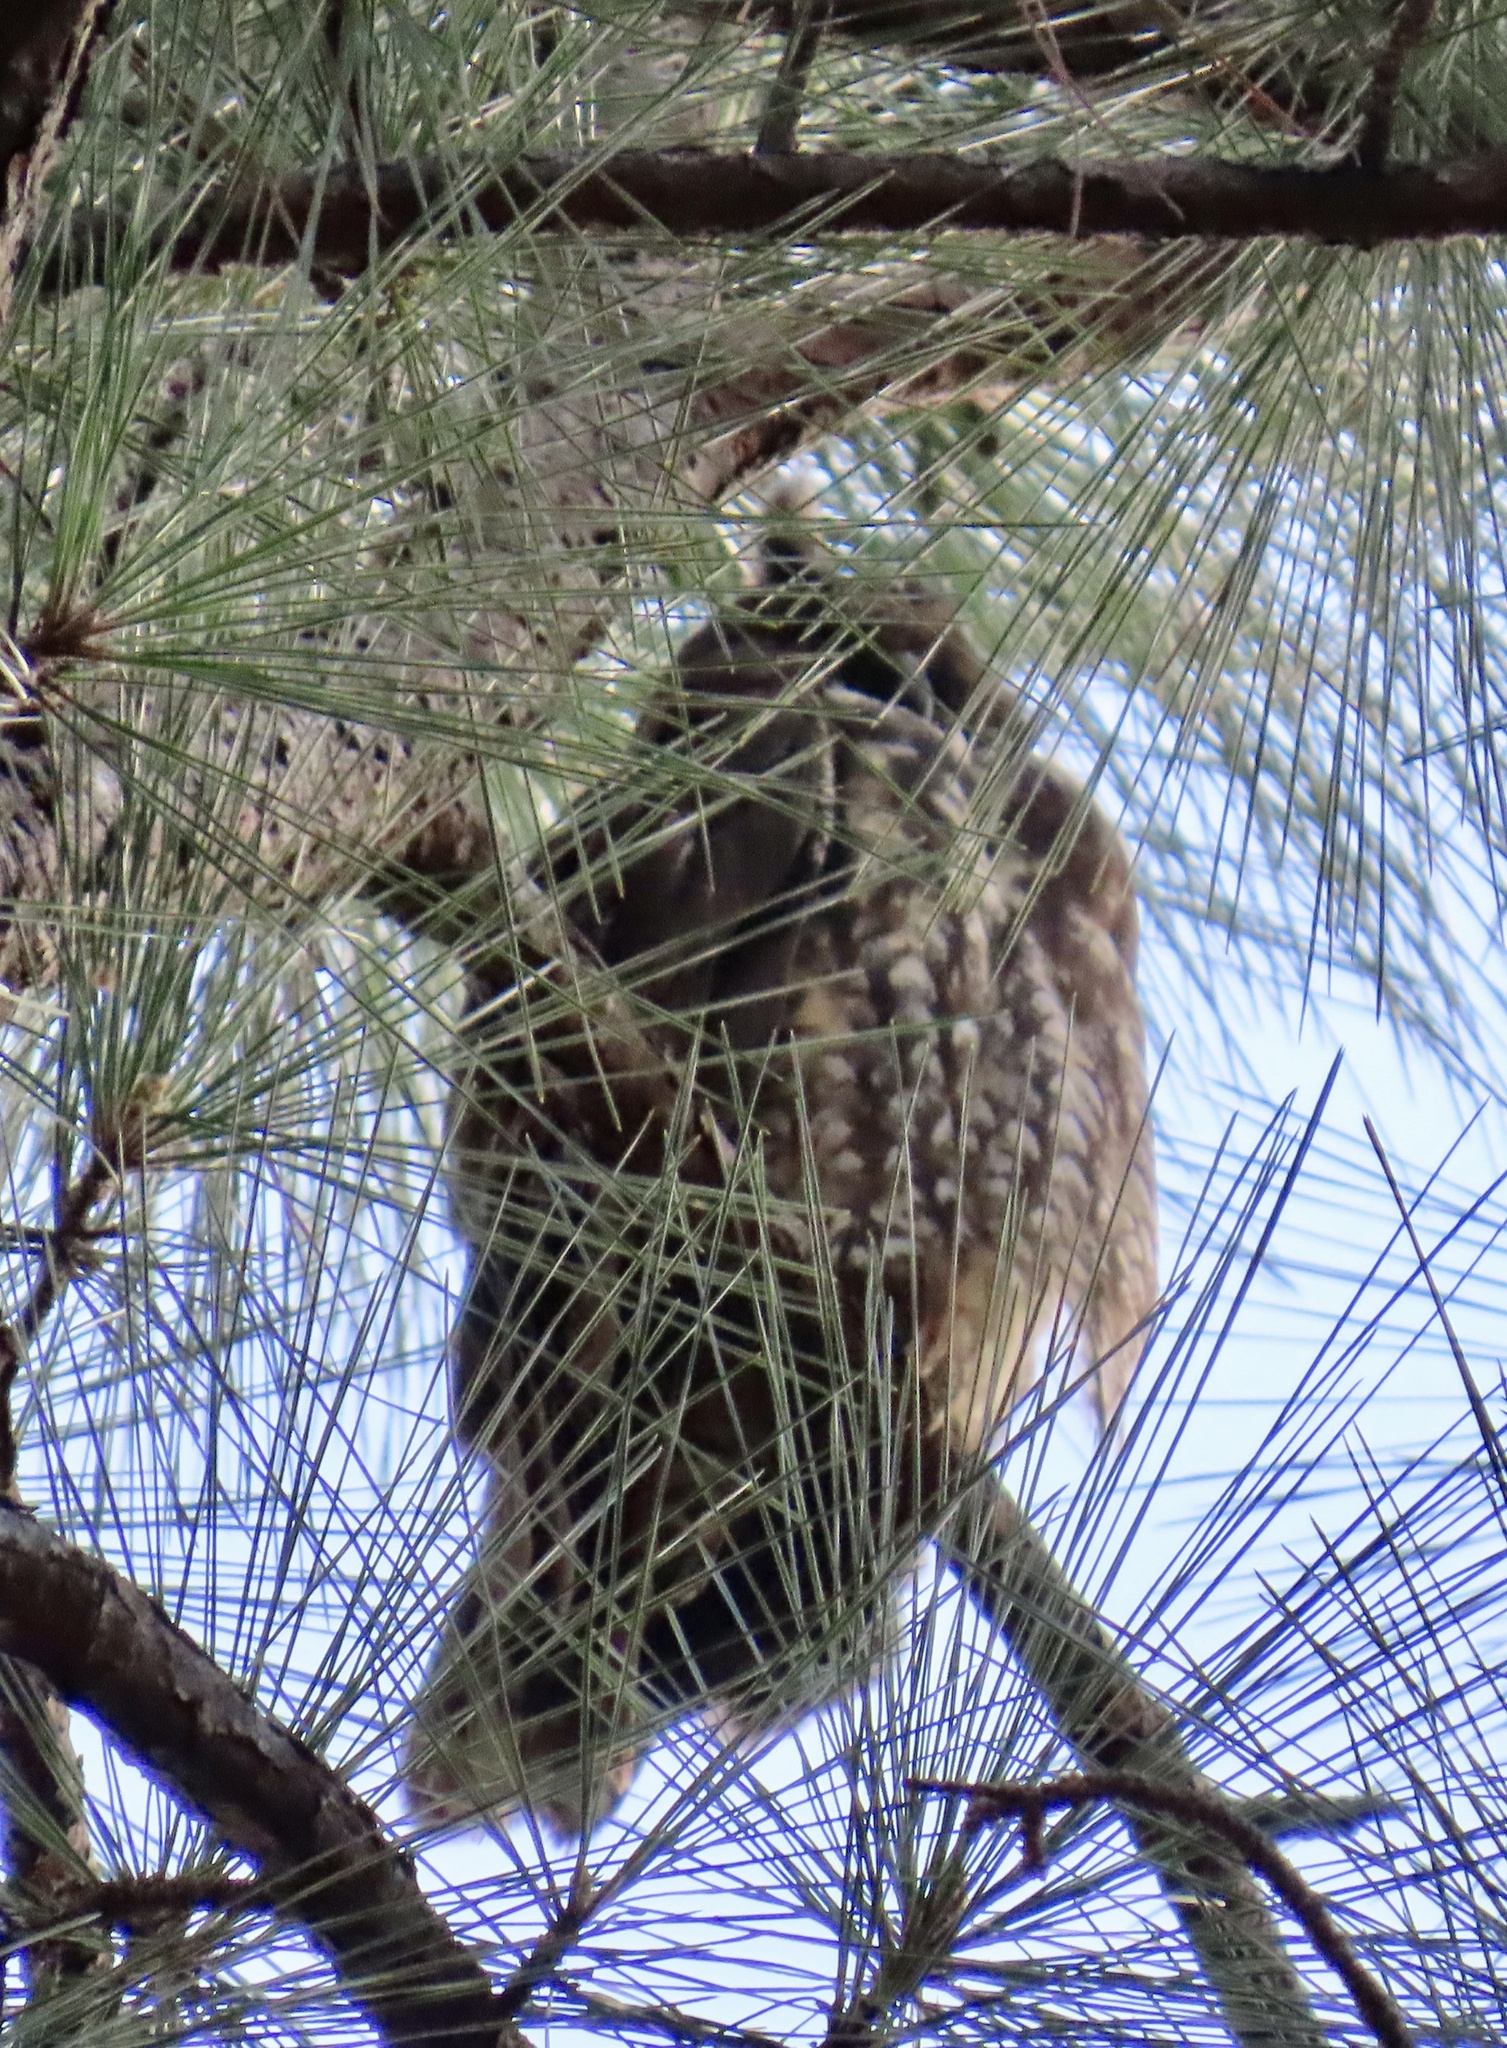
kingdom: Animalia
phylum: Chordata
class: Aves
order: Strigiformes
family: Strigidae
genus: Asio
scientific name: Asio stygius
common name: Stygian owl
